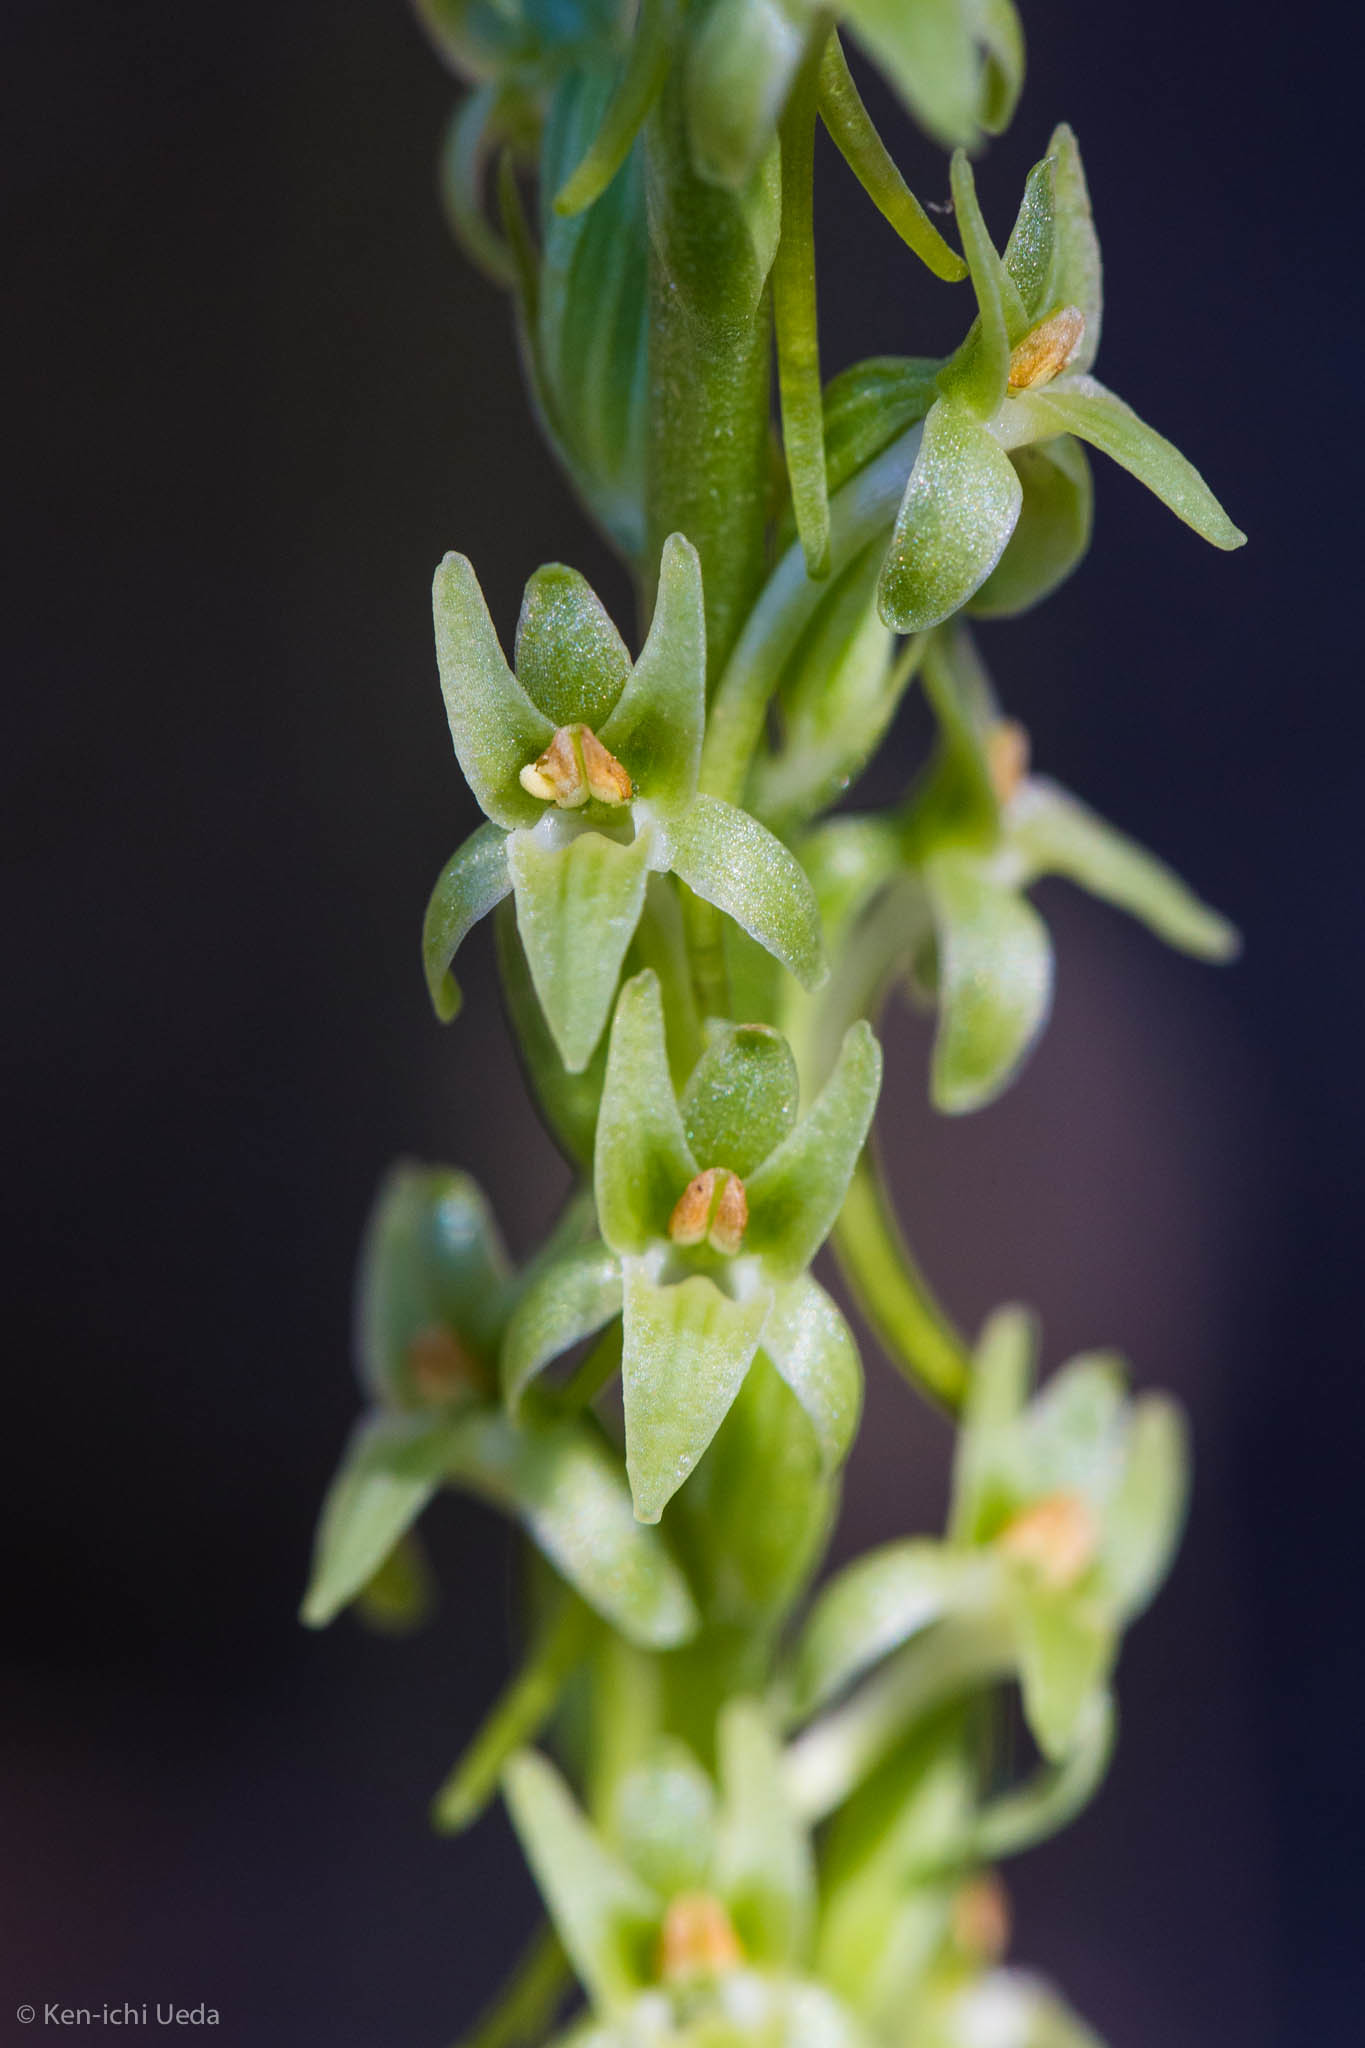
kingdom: Plantae
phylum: Tracheophyta
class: Liliopsida
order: Asparagales
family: Orchidaceae
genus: Platanthera
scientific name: Platanthera elongata
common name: Dense-flowered rein orchid
